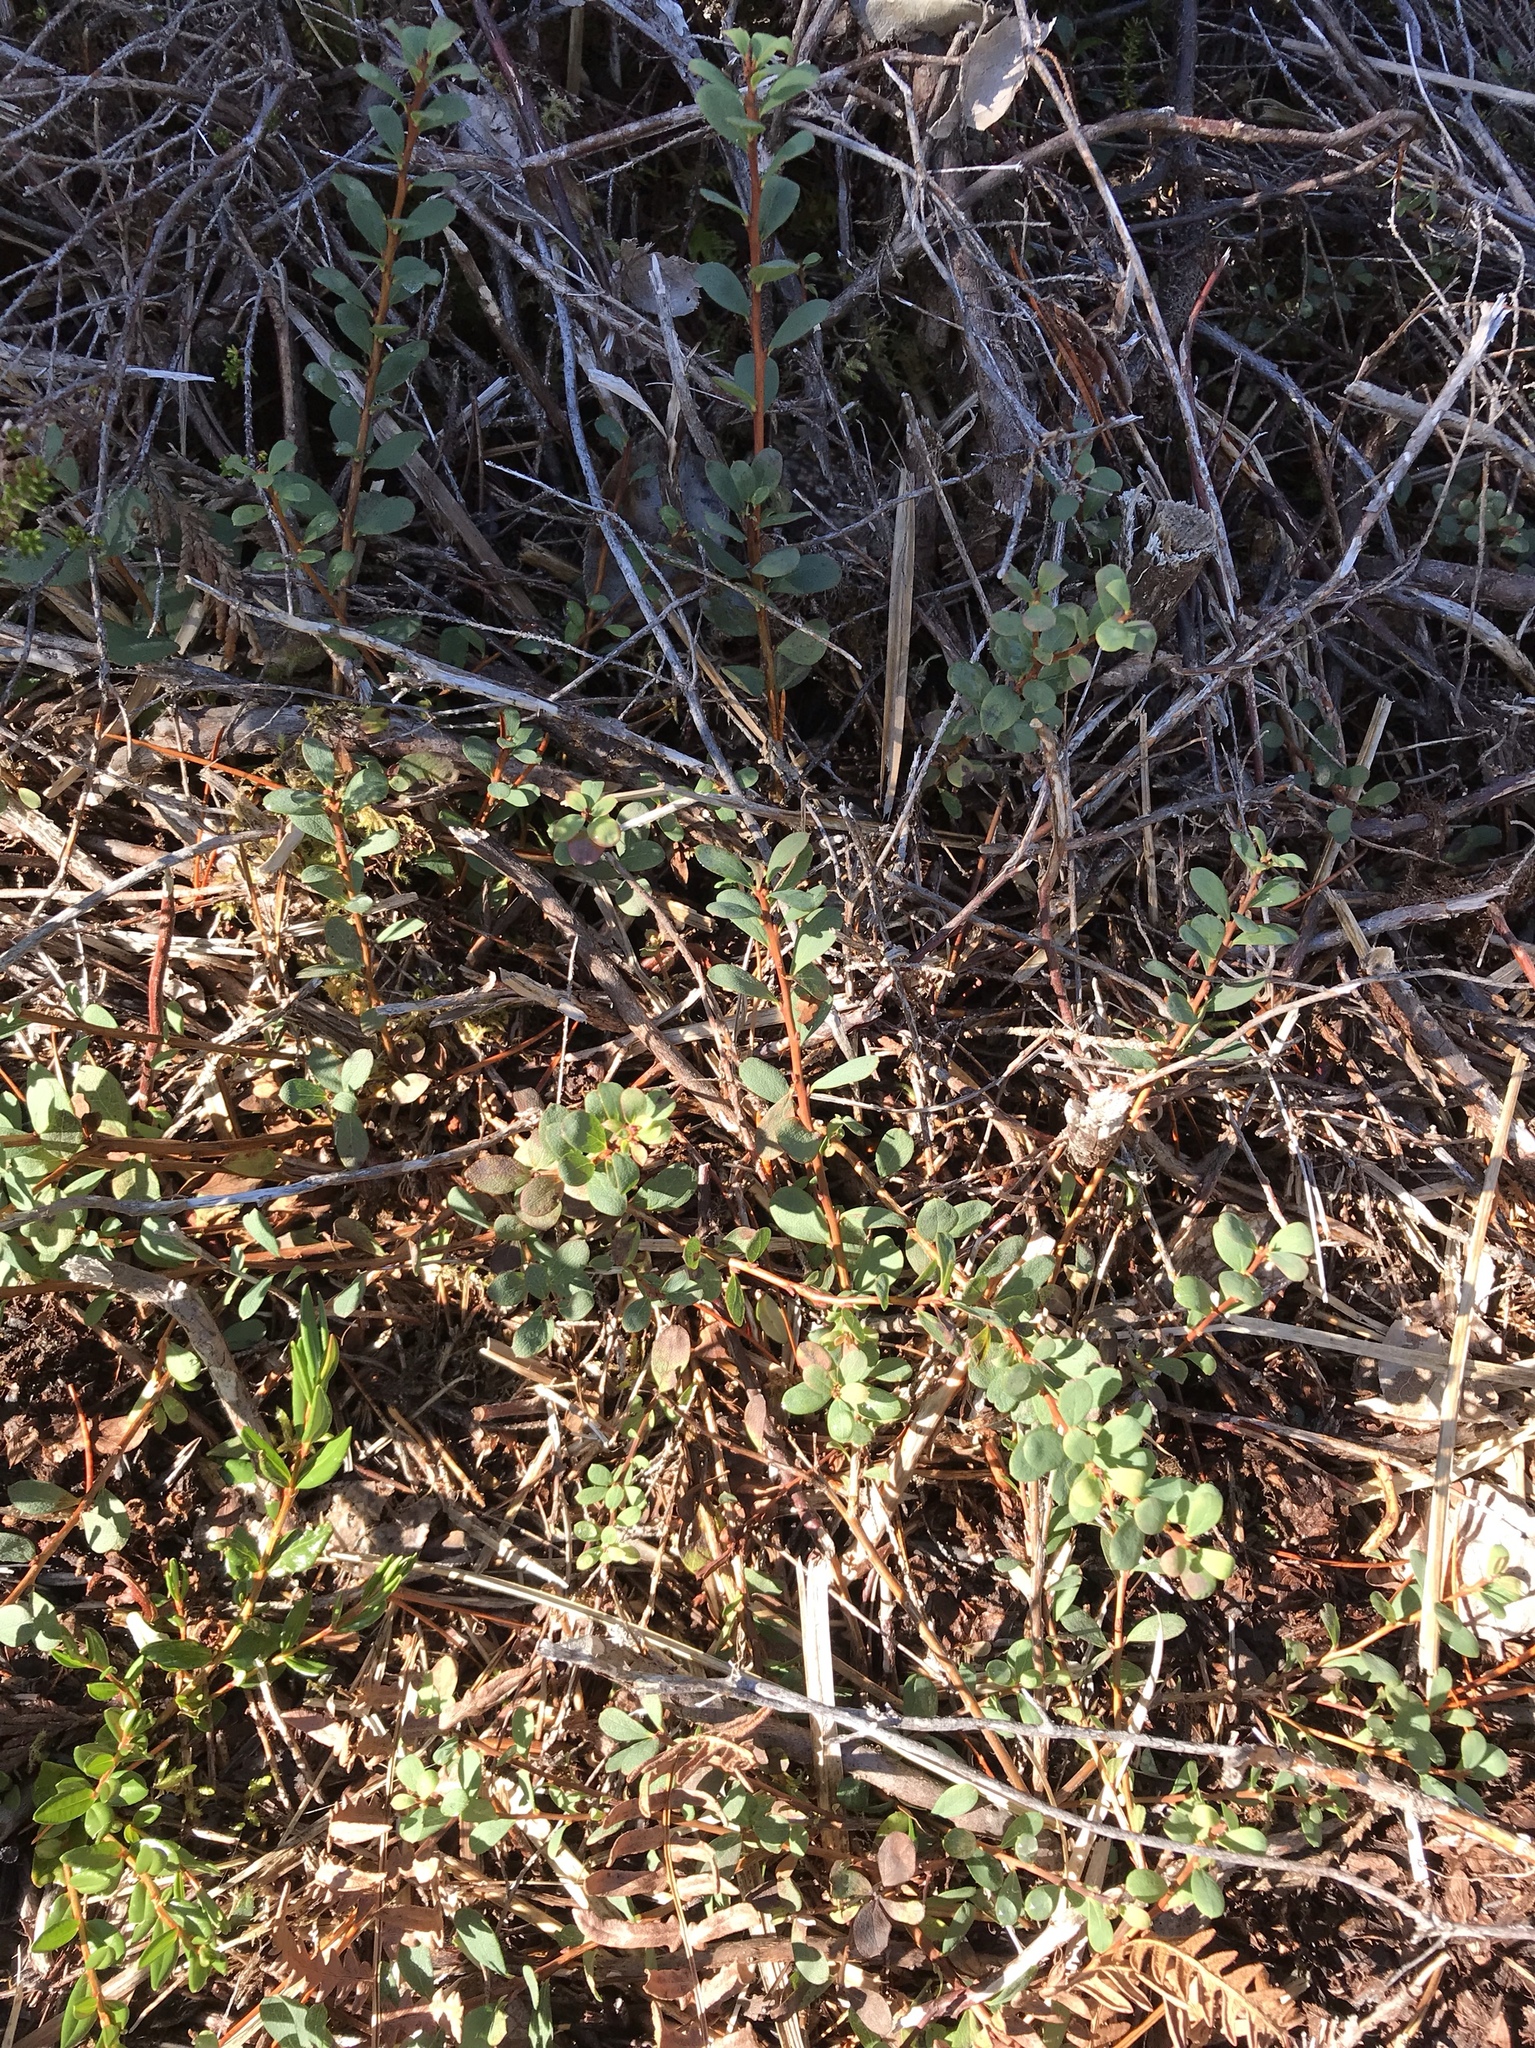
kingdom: Plantae
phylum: Tracheophyta
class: Magnoliopsida
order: Ericales
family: Ericaceae
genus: Vaccinium
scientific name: Vaccinium uliginosum
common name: Bog bilberry
